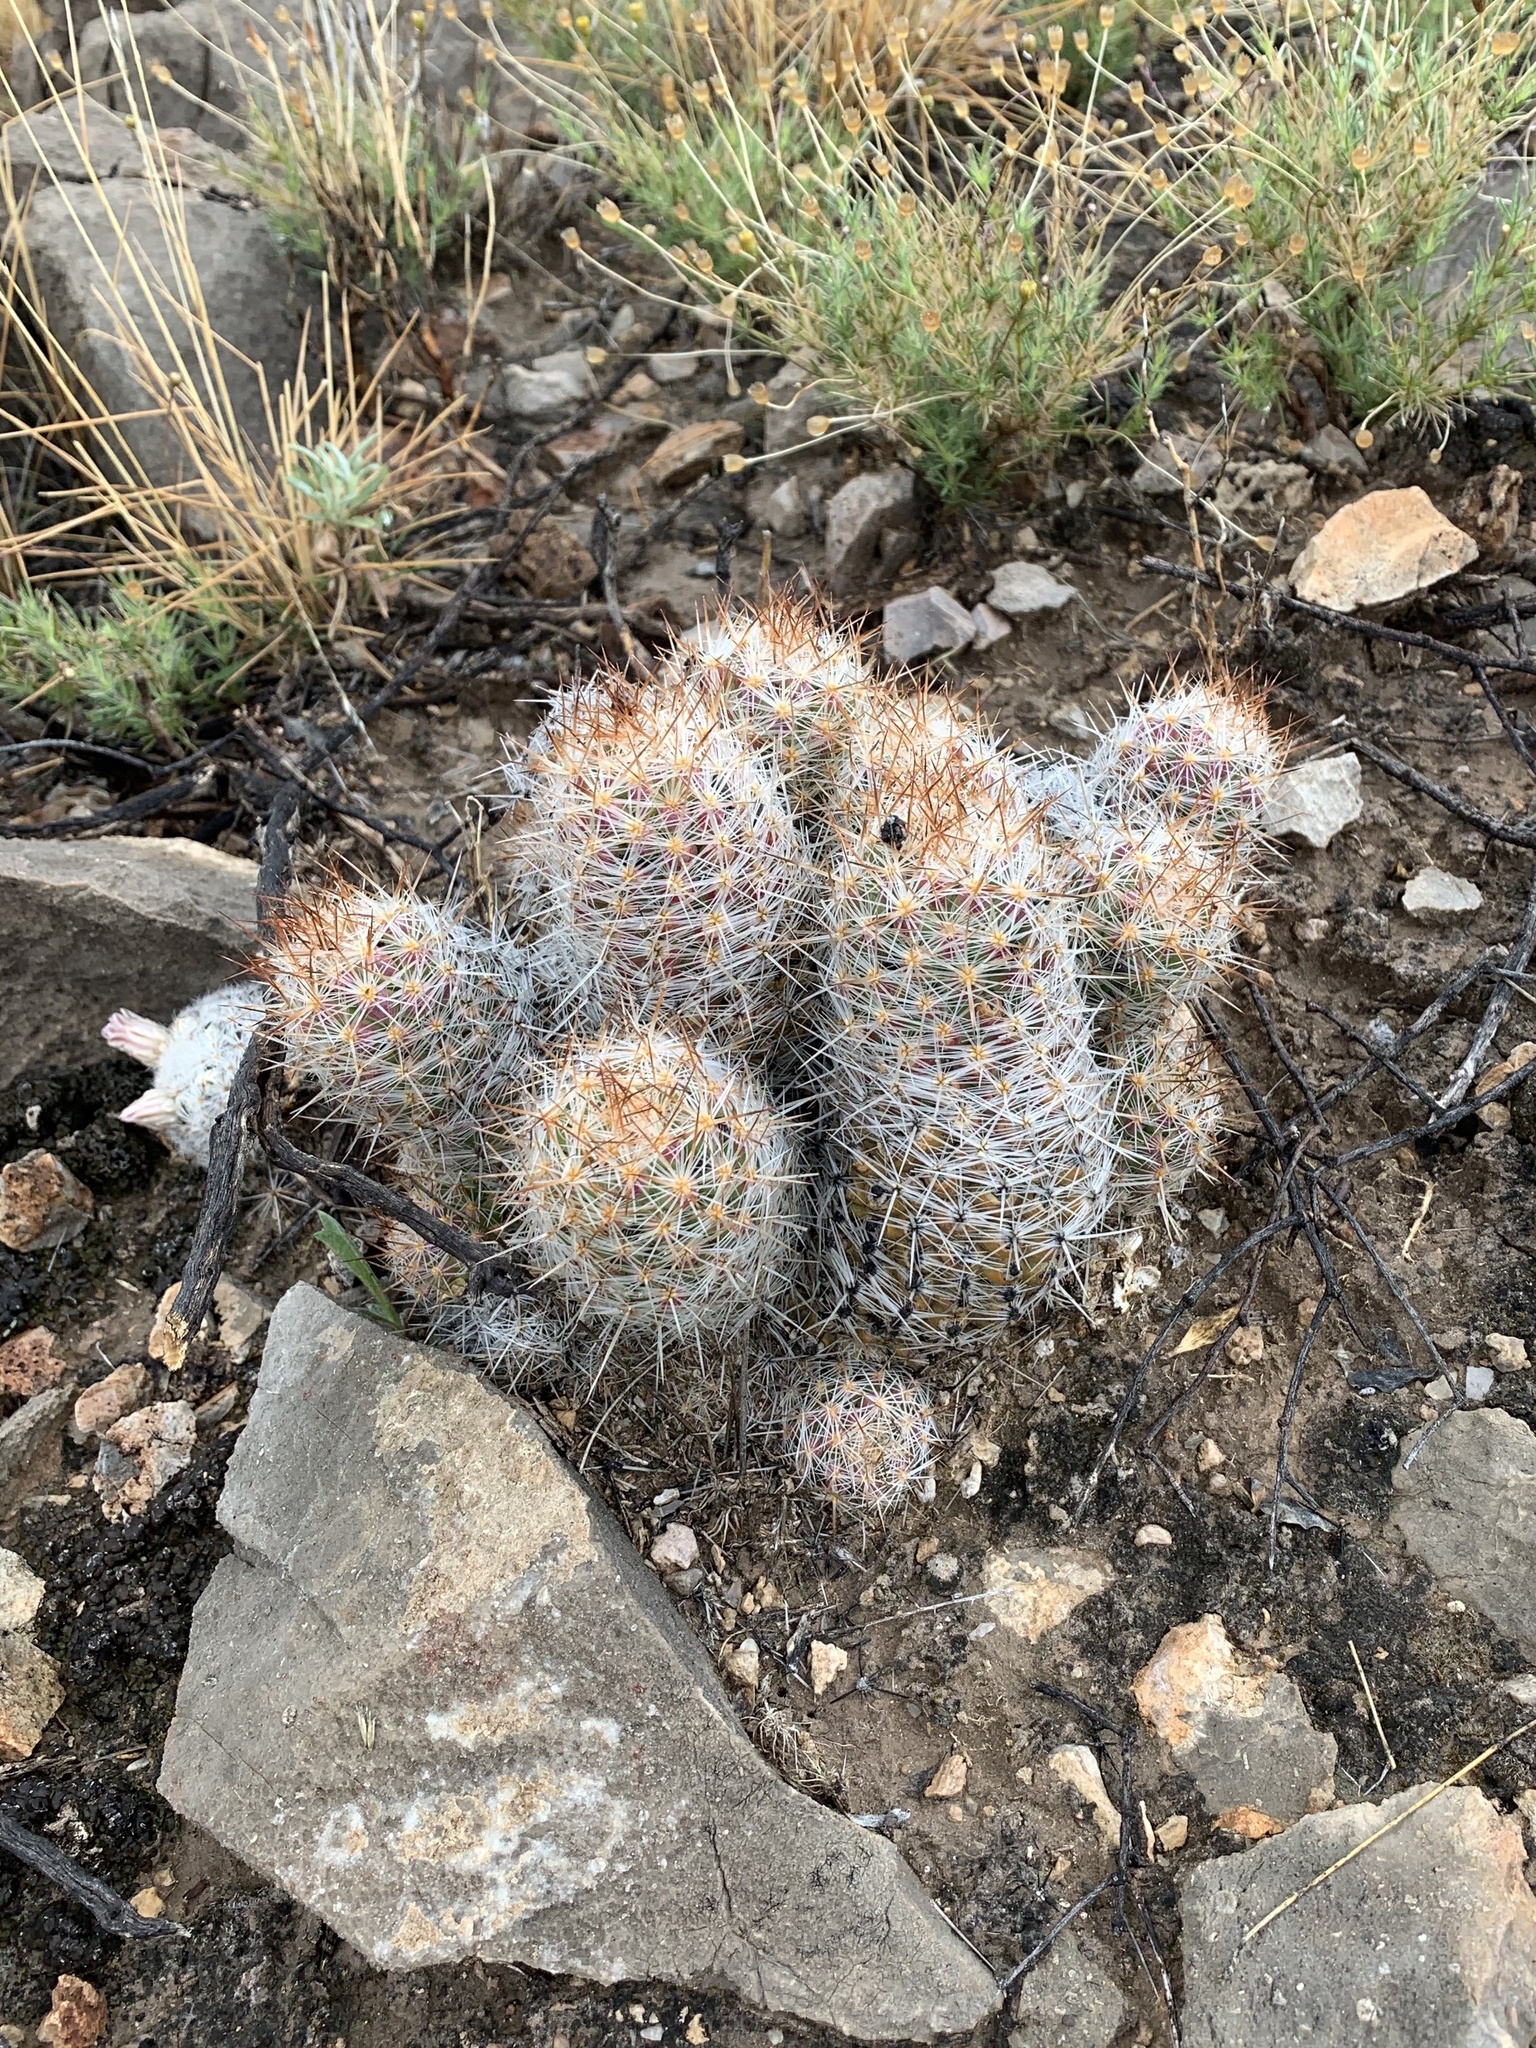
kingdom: Plantae
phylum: Tracheophyta
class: Magnoliopsida
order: Caryophyllales
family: Cactaceae
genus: Pelecyphora
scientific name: Pelecyphora tuberculosa
